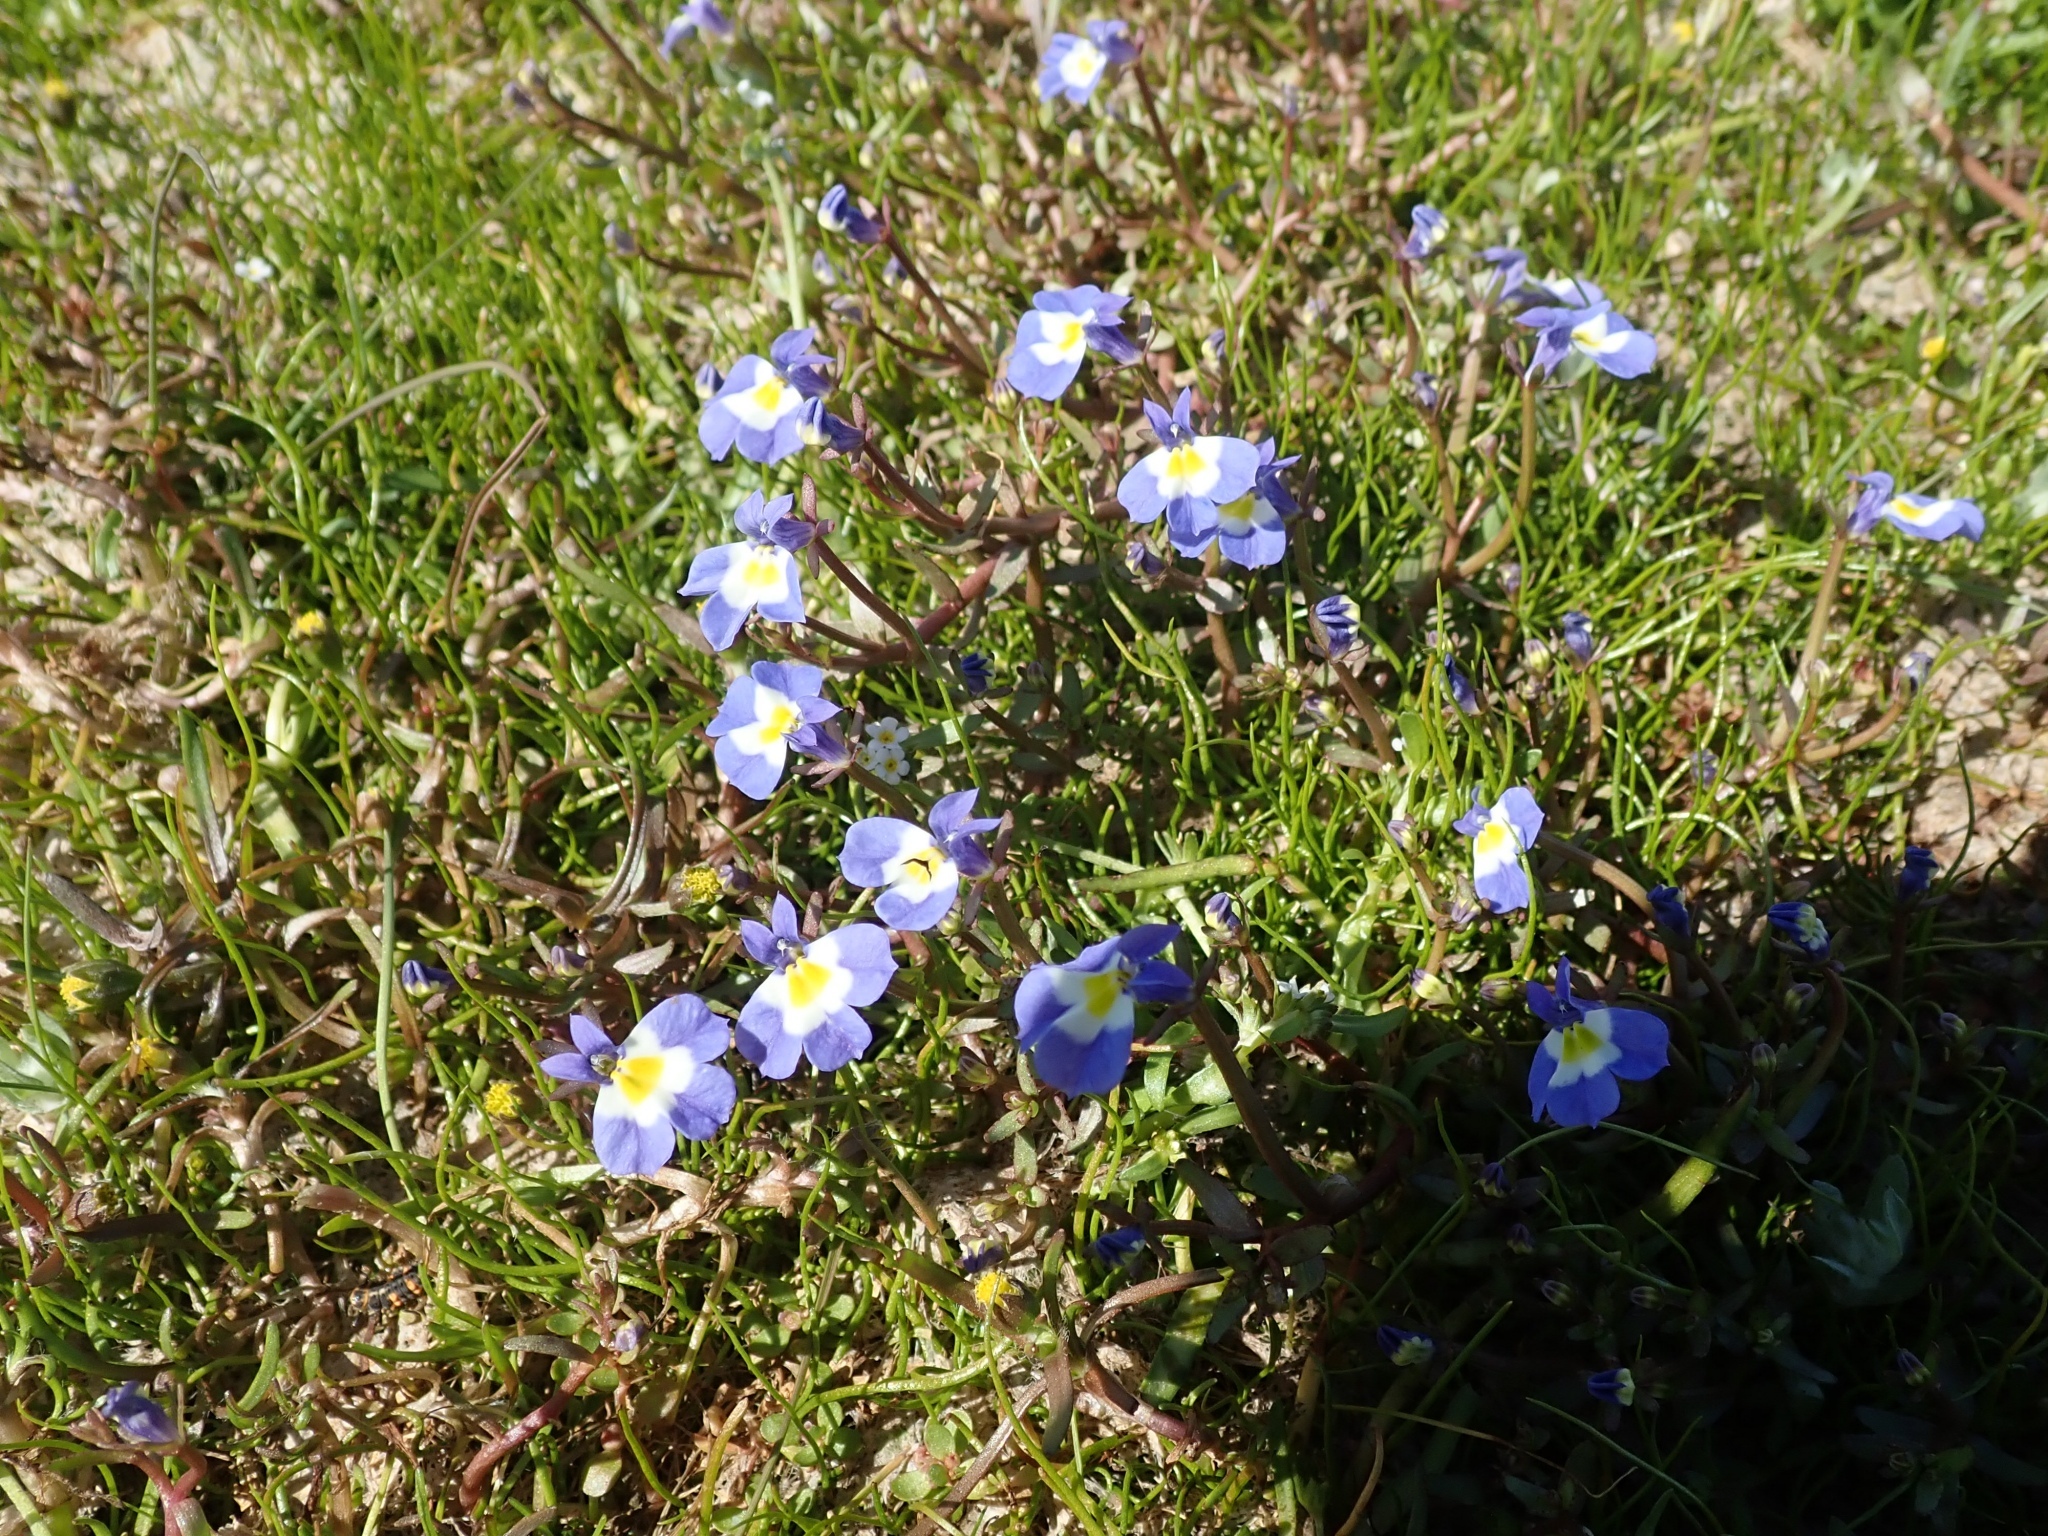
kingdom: Plantae
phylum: Tracheophyta
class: Magnoliopsida
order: Asterales
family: Campanulaceae
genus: Downingia
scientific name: Downingia bella
